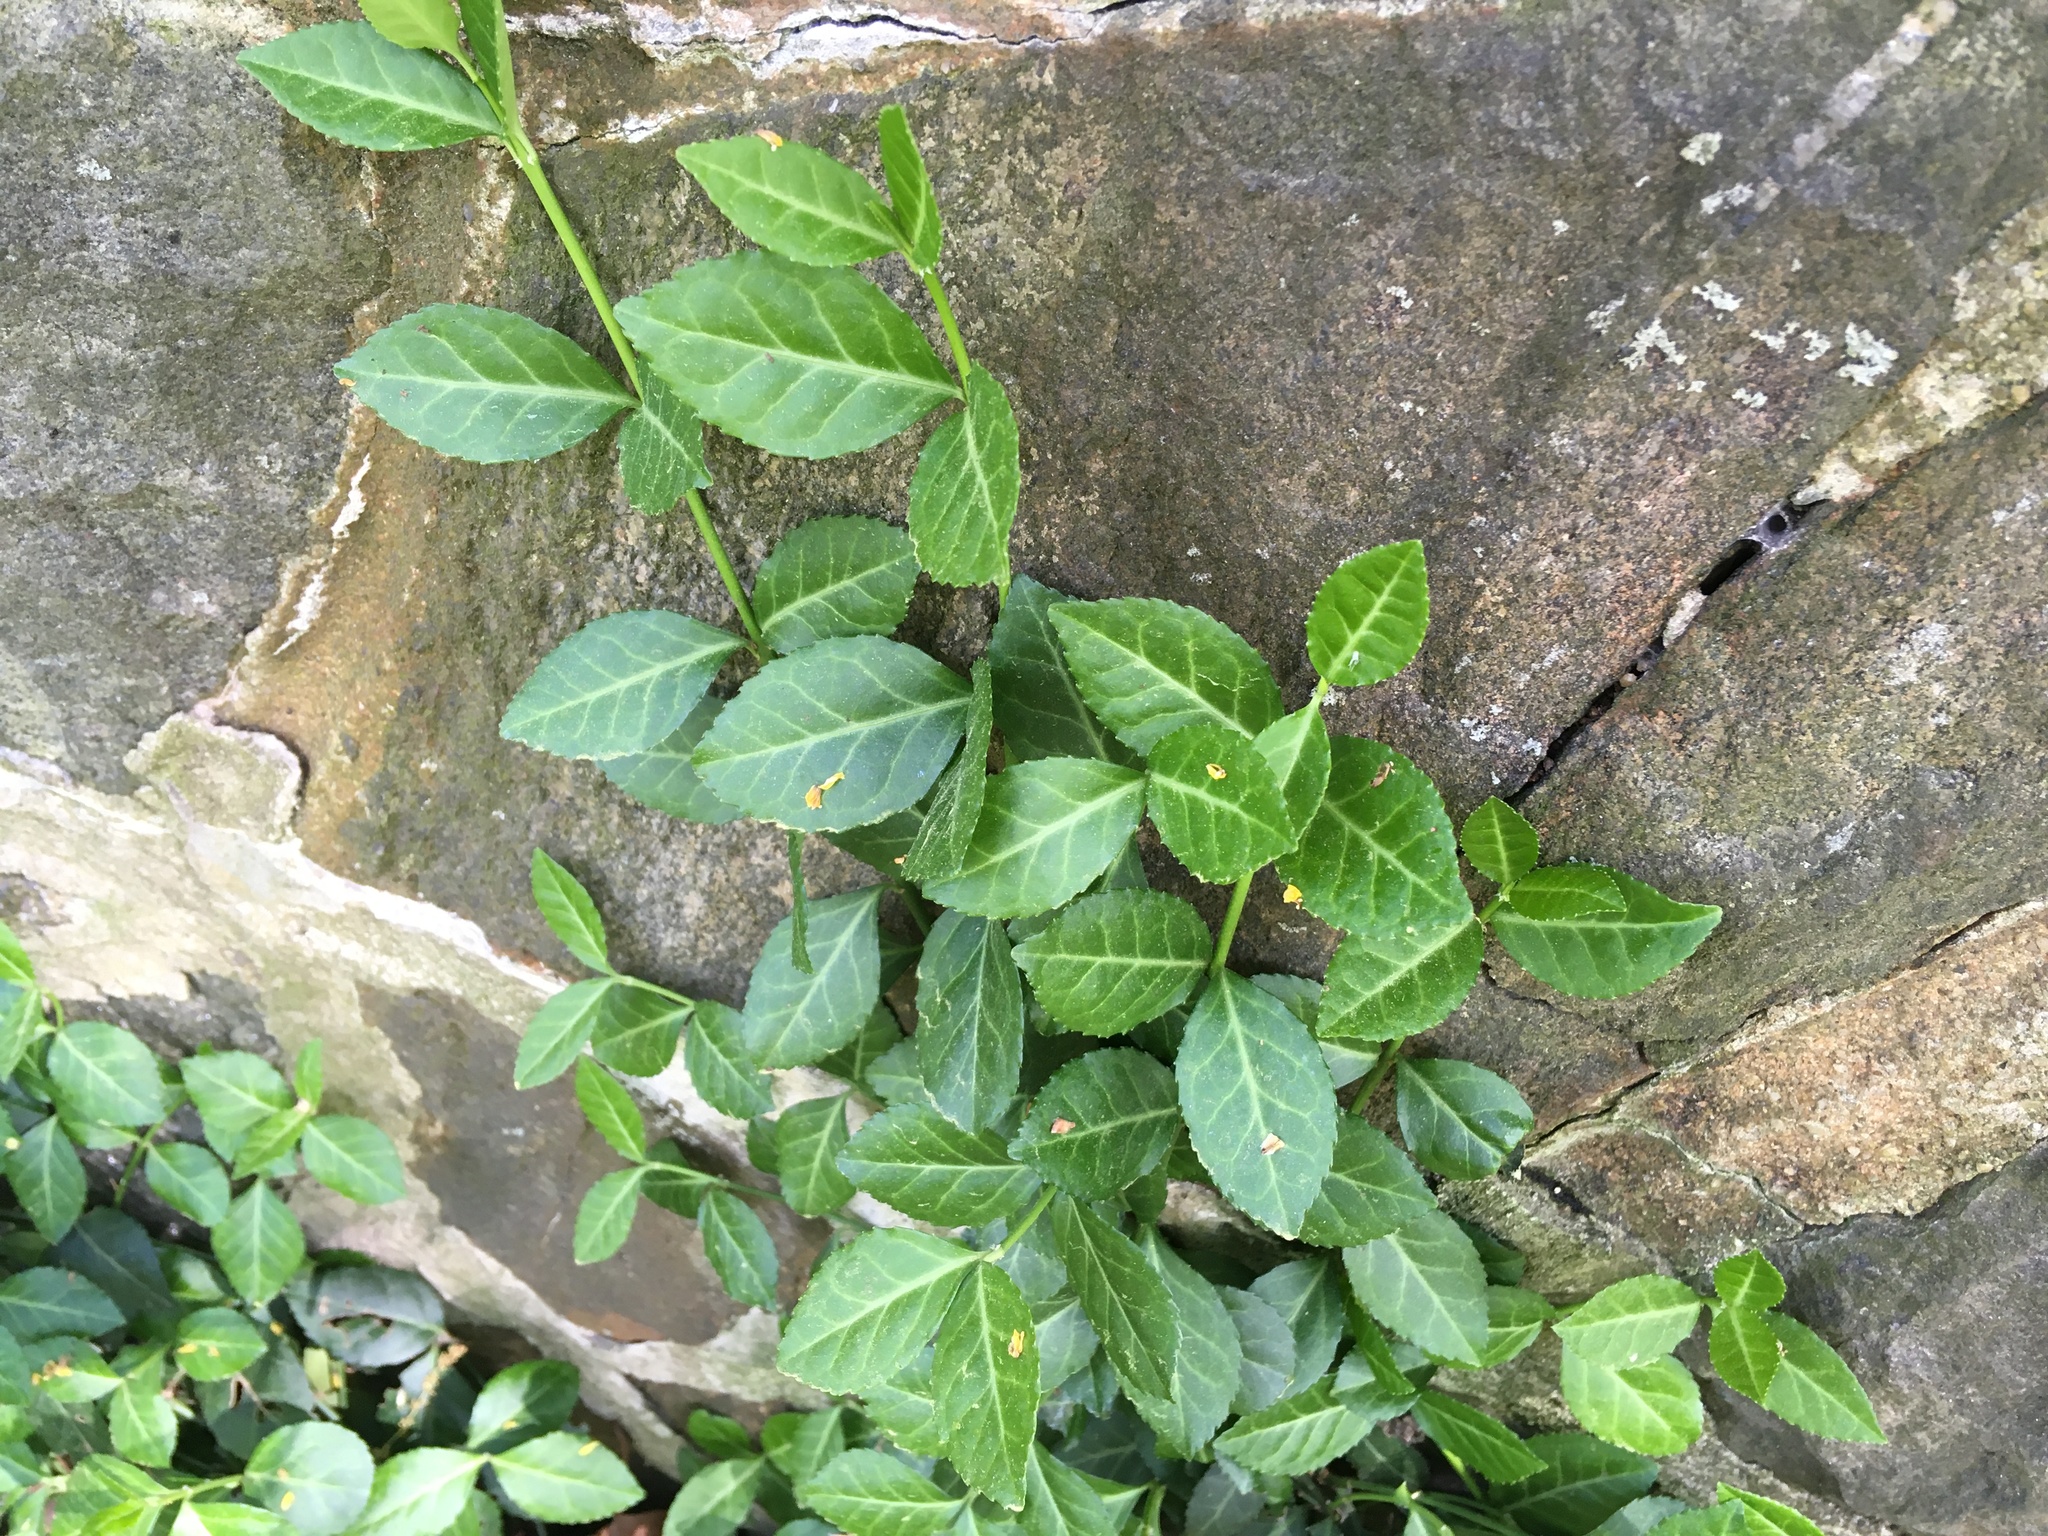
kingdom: Plantae
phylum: Tracheophyta
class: Magnoliopsida
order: Celastrales
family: Celastraceae
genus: Euonymus
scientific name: Euonymus fortunei
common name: Climbing euonymus
